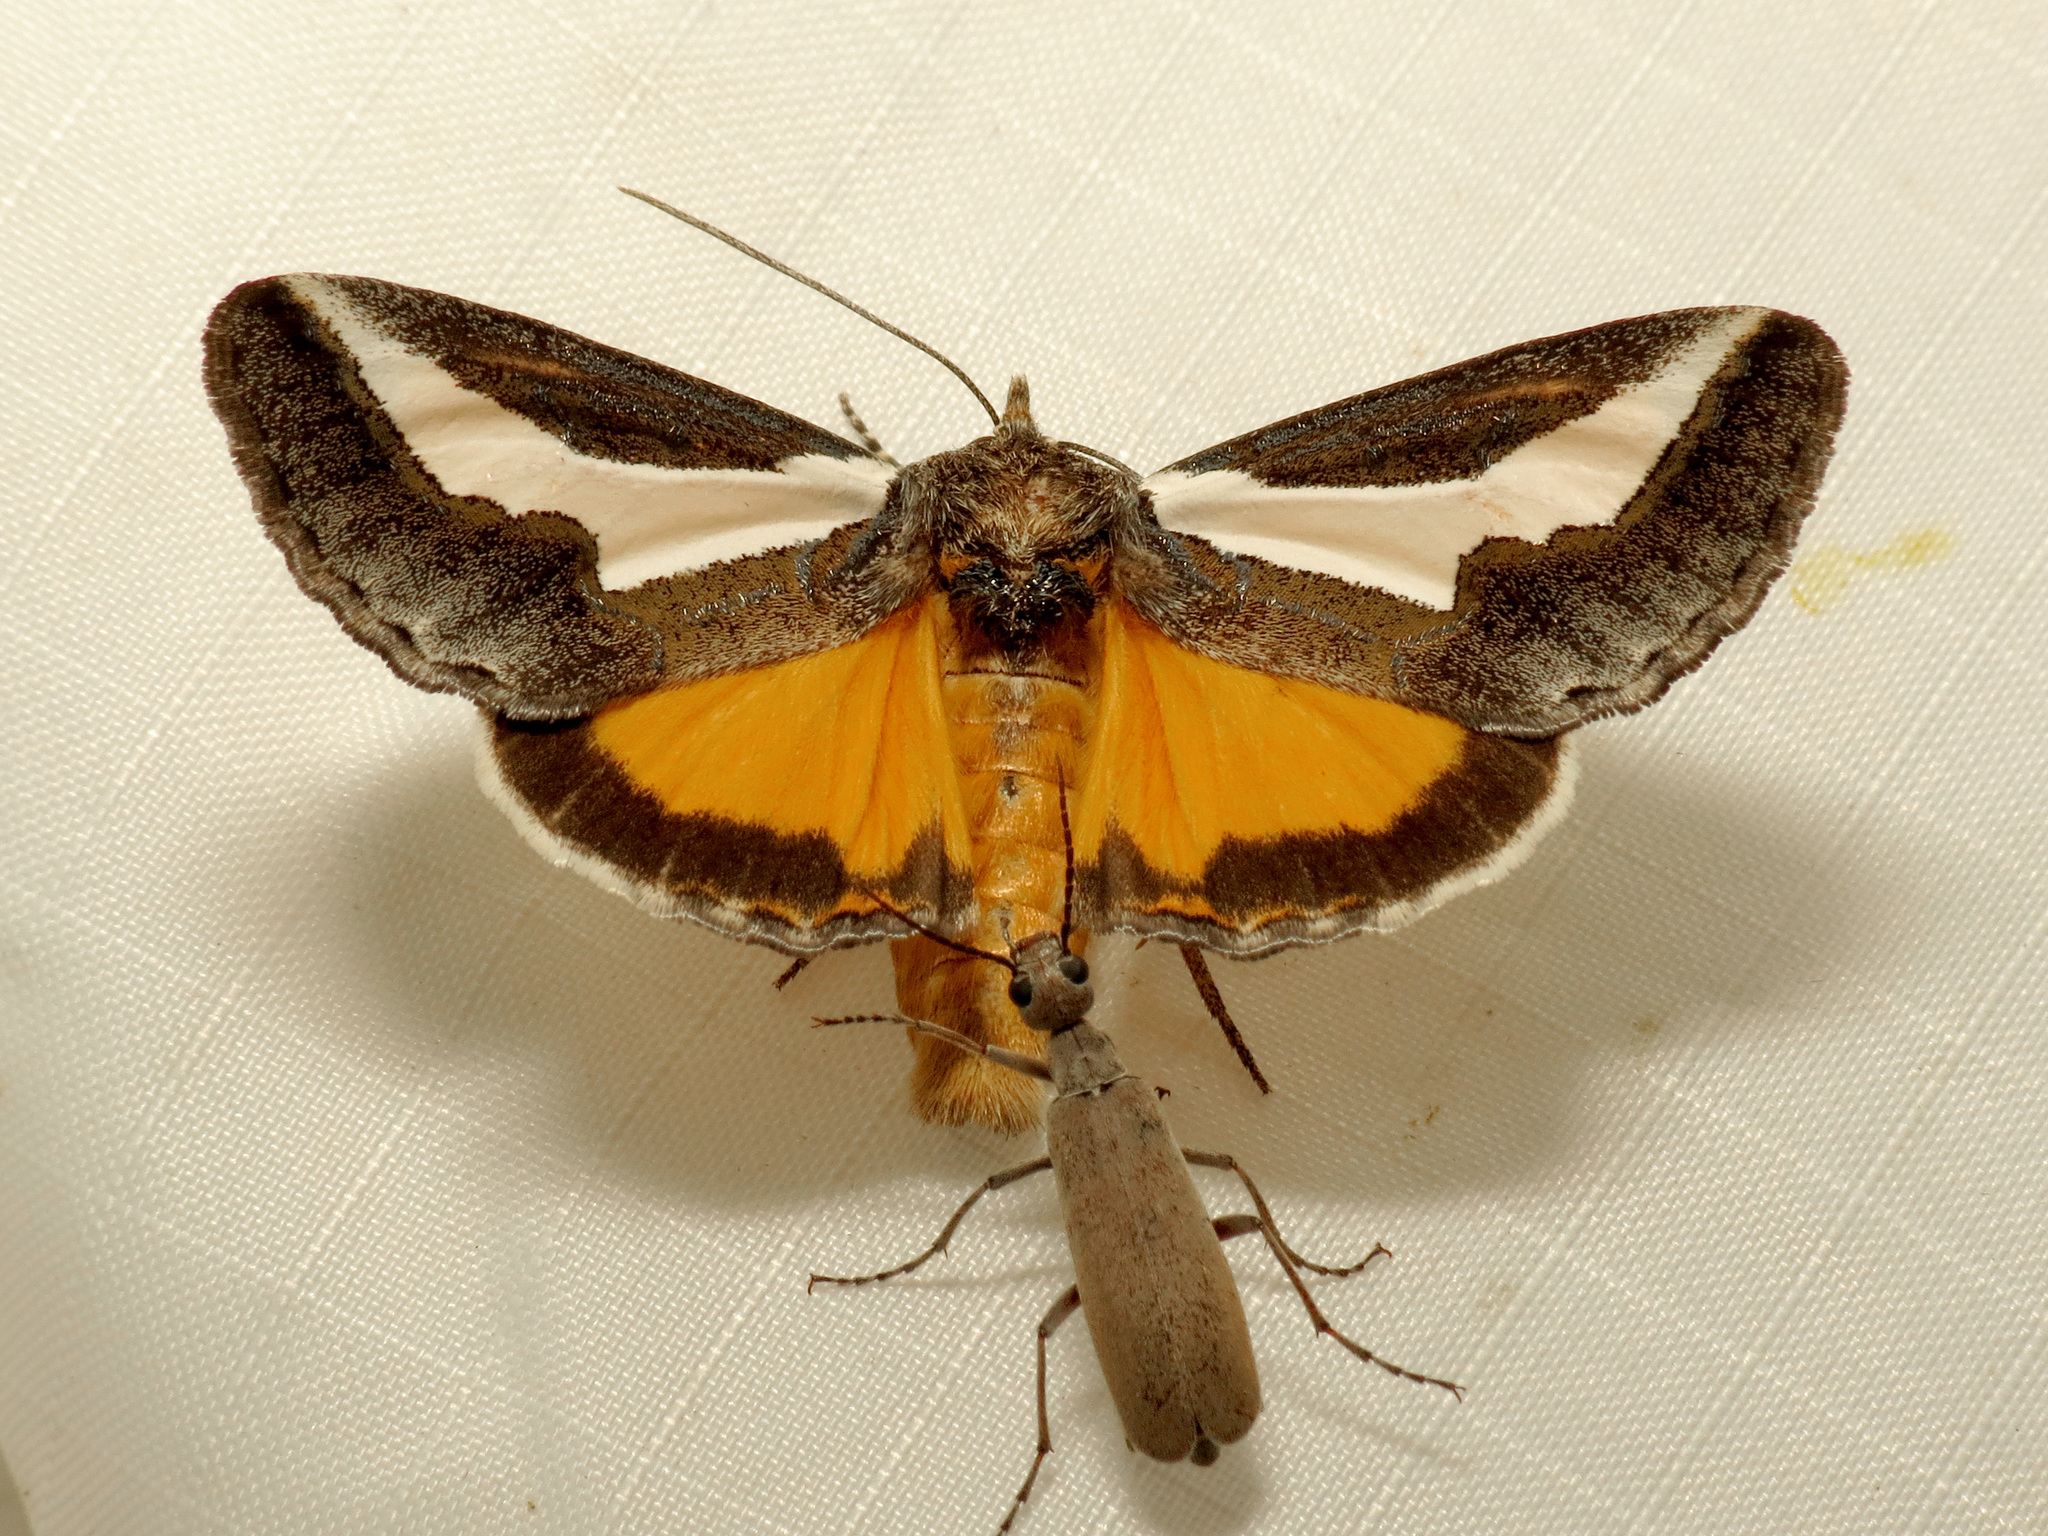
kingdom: Animalia
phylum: Arthropoda
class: Insecta
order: Lepidoptera
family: Noctuidae
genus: Euscirrhopterus
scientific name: Euscirrhopterus cosyra
